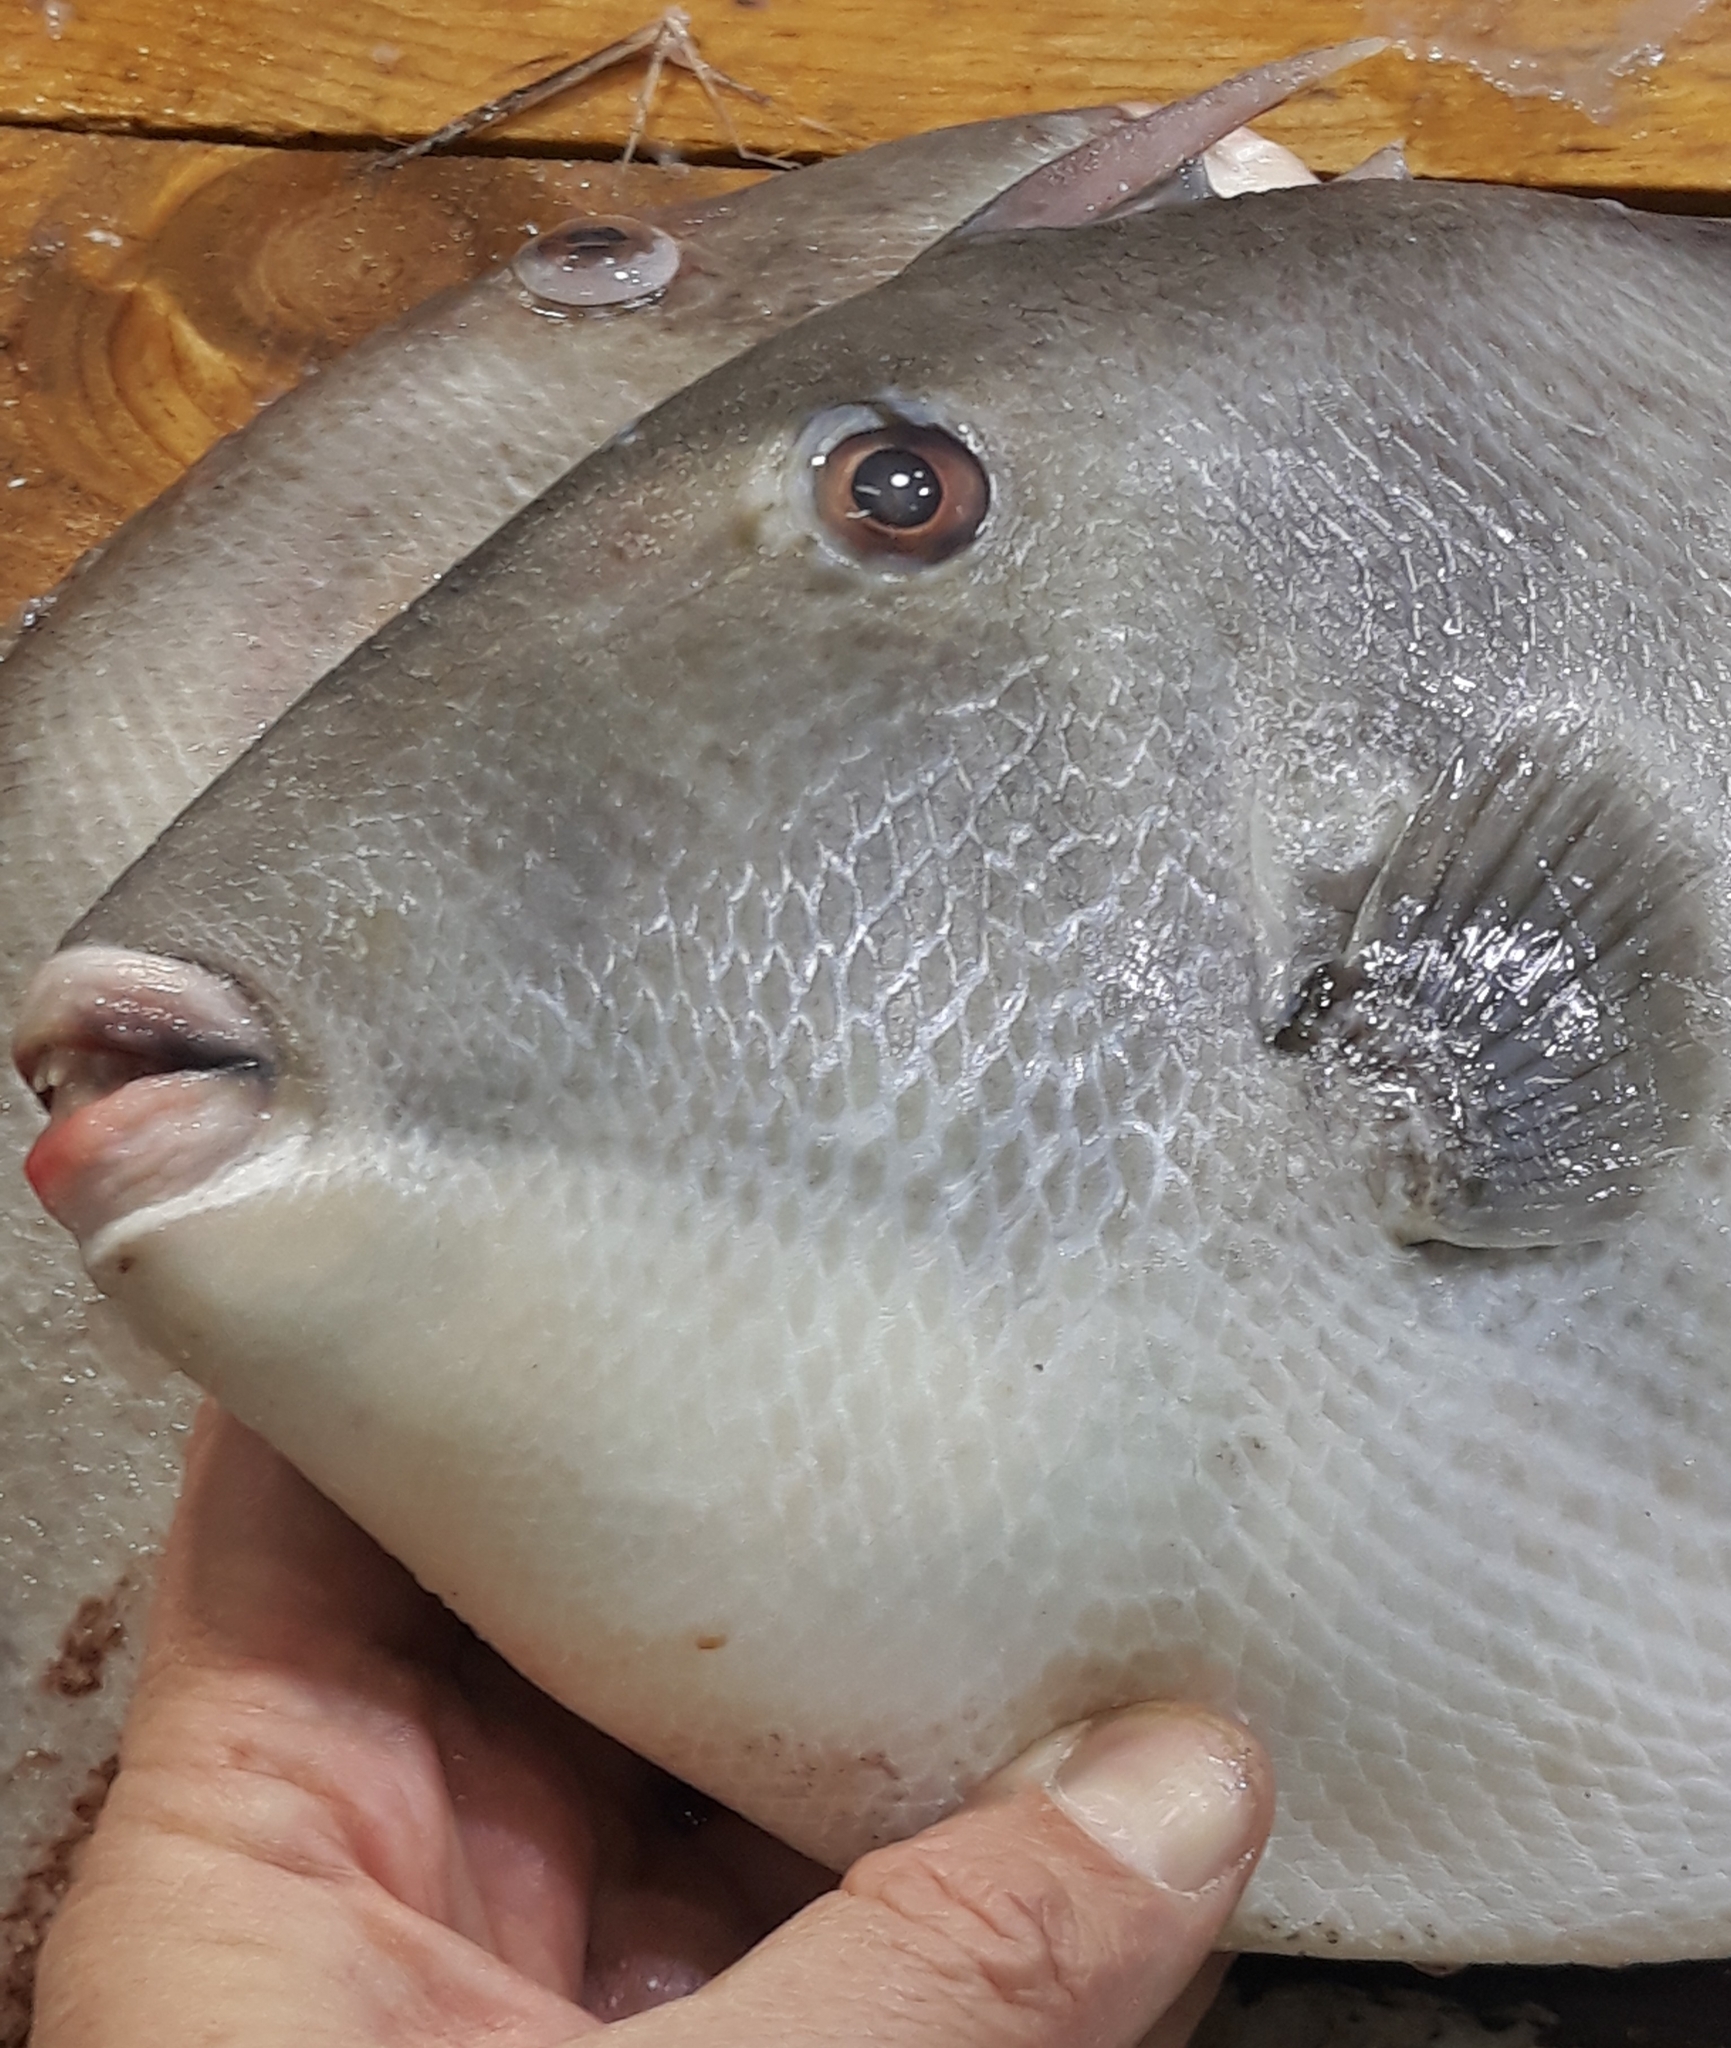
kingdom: Animalia
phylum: Chordata
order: Tetraodontiformes
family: Balistidae
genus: Balistes
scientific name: Balistes capriscus
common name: Grey triggerfish
